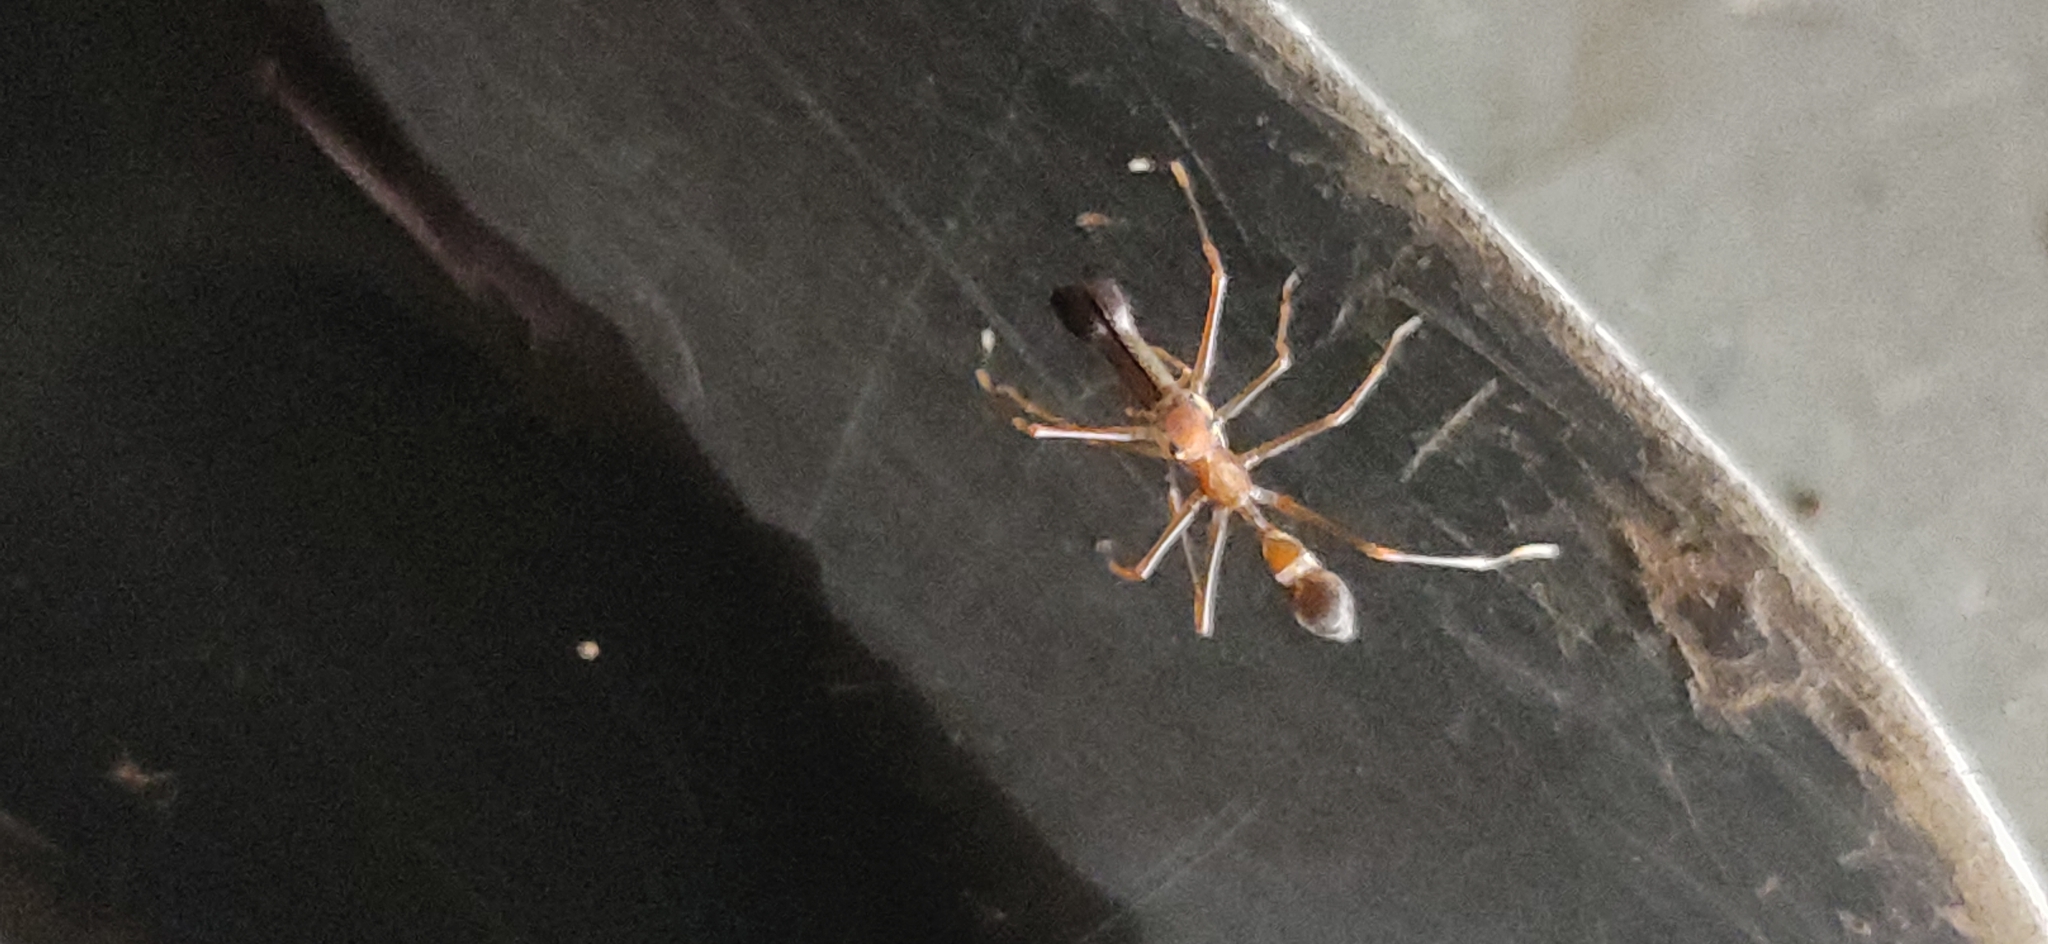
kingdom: Animalia
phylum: Arthropoda
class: Arachnida
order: Araneae
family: Salticidae
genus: Myrmaplata
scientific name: Myrmaplata plataleoides
